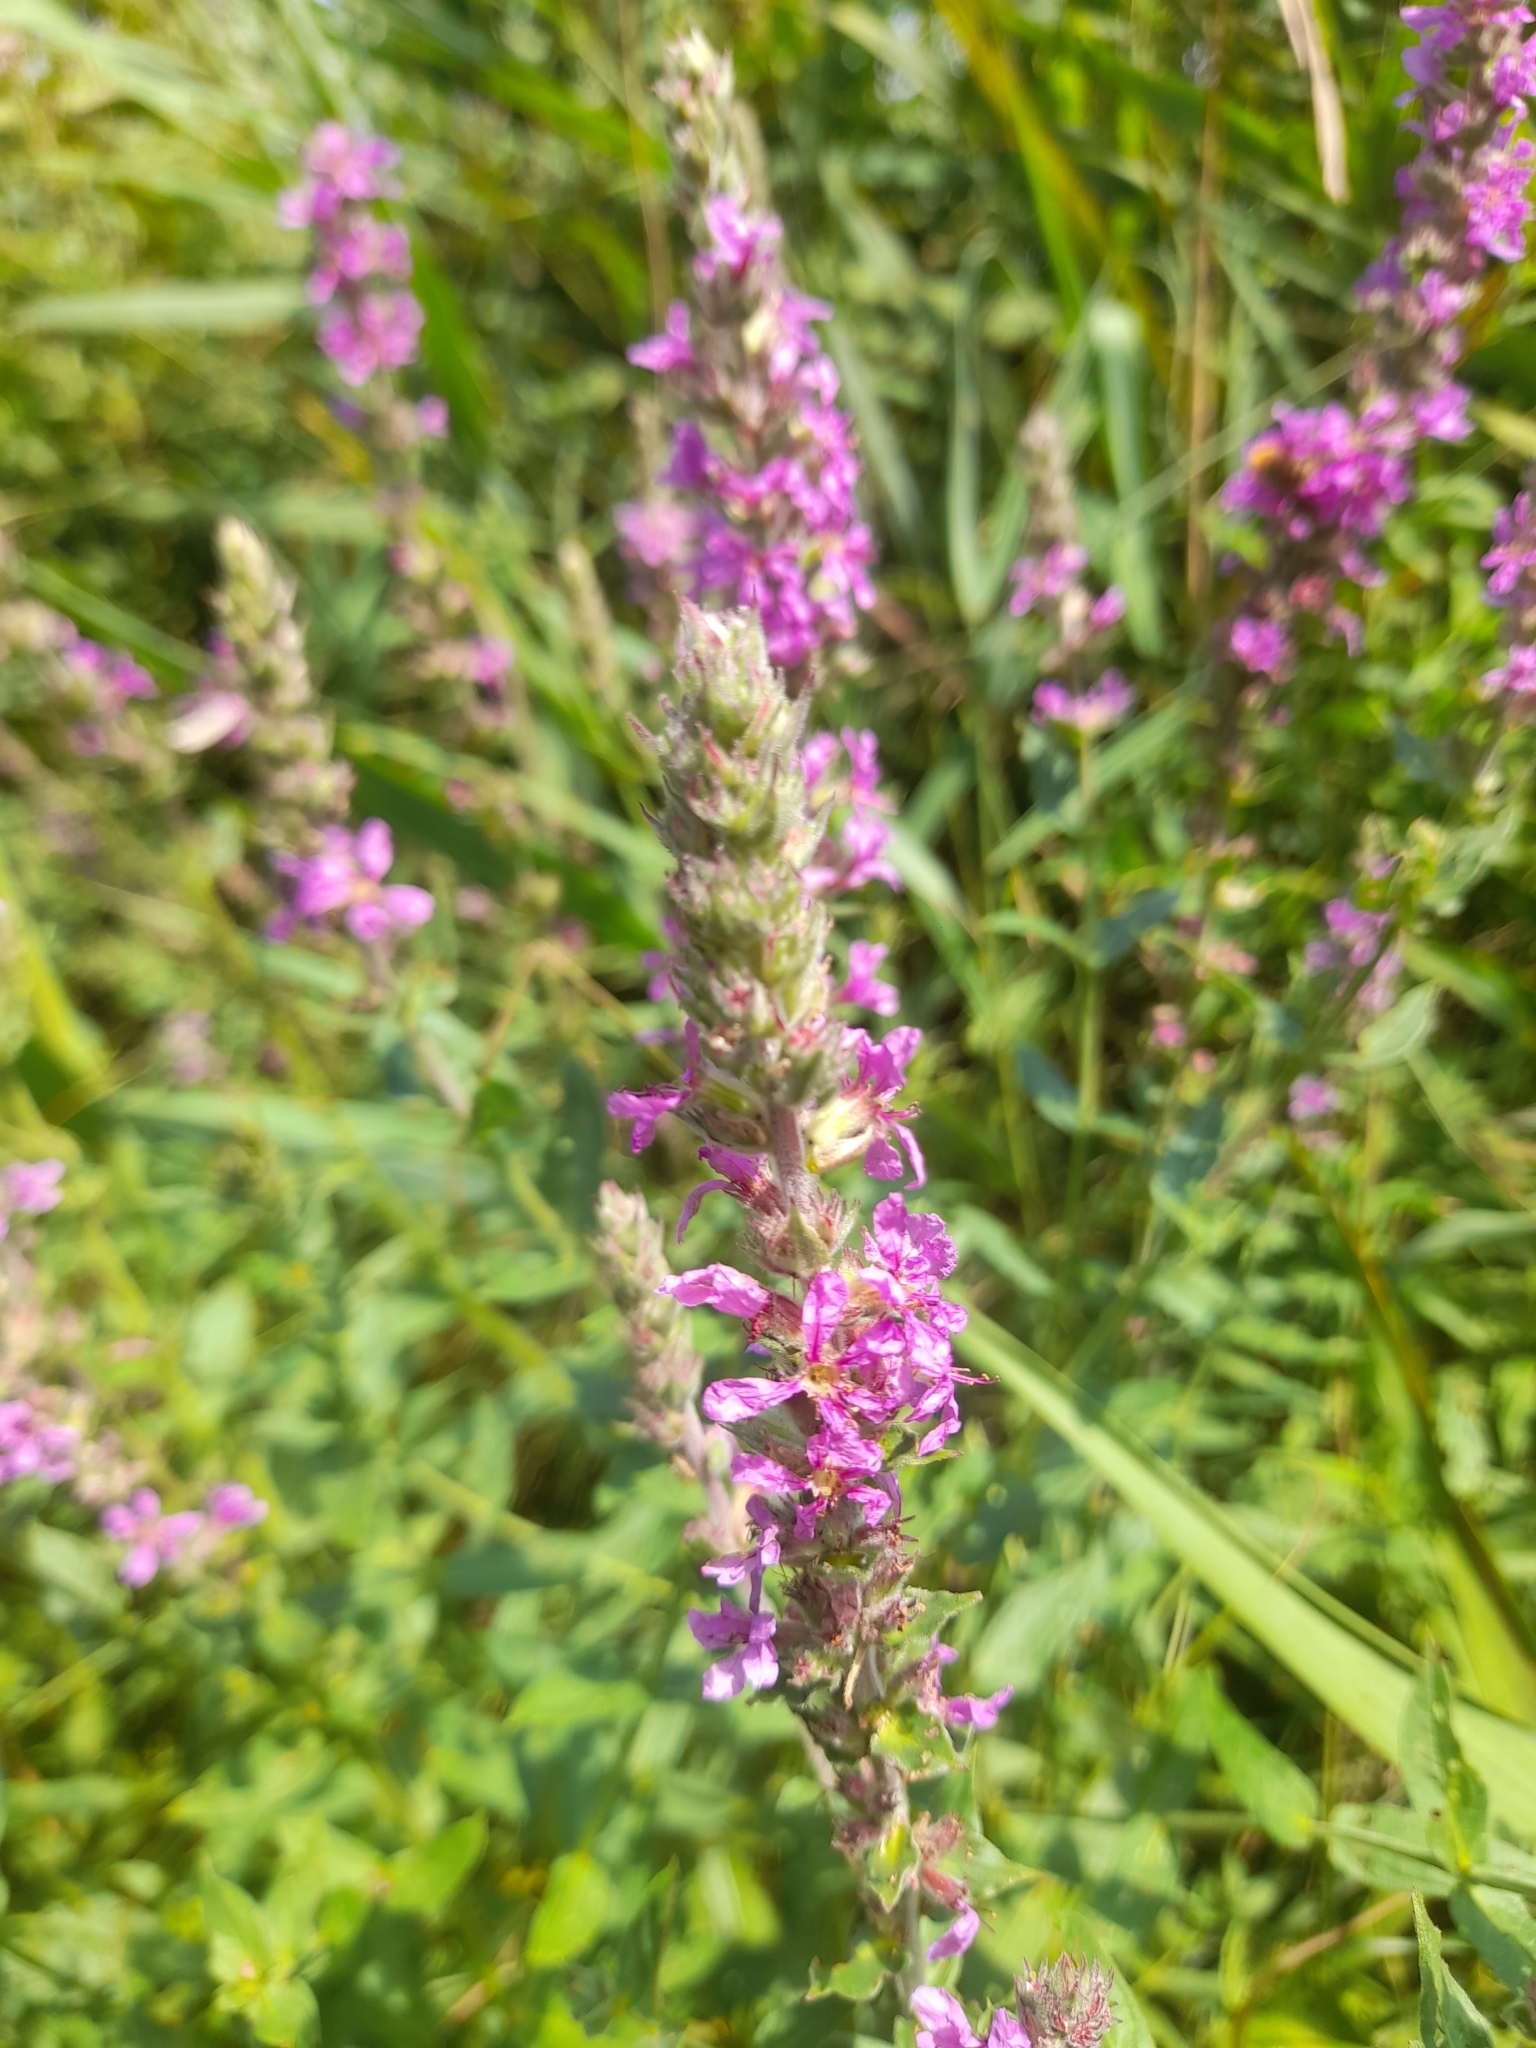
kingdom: Plantae
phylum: Tracheophyta
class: Magnoliopsida
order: Myrtales
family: Lythraceae
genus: Lythrum
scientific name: Lythrum salicaria
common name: Purple loosestrife
